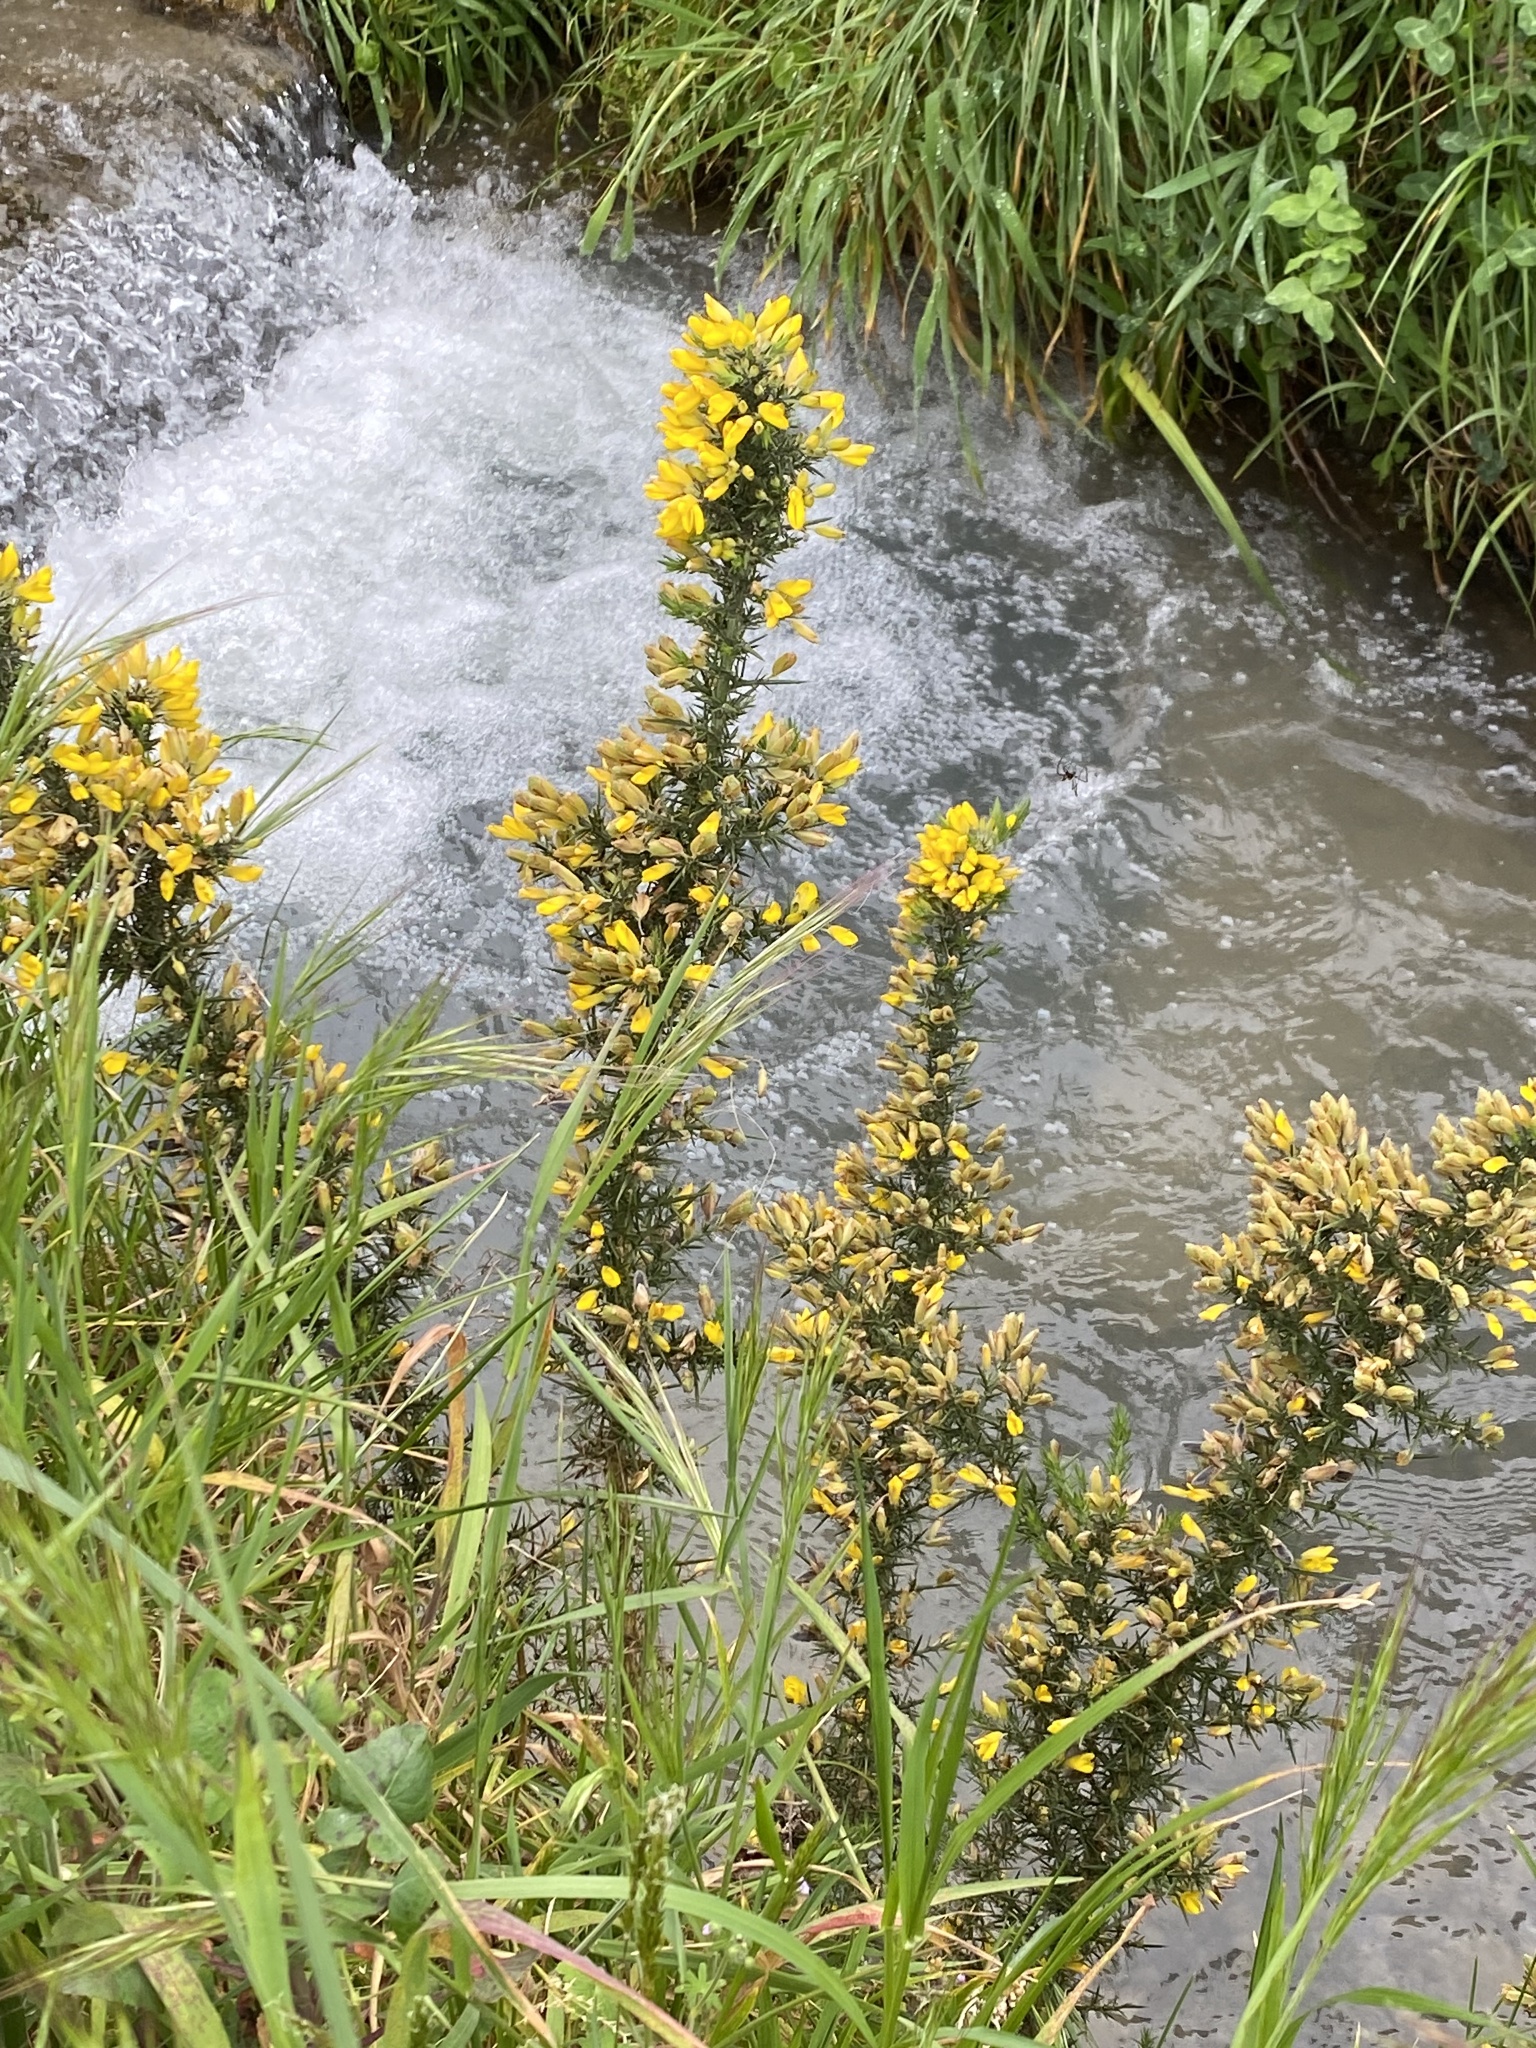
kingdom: Plantae
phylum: Tracheophyta
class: Magnoliopsida
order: Fabales
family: Fabaceae
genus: Ulex
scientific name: Ulex europaeus
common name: Common gorse
